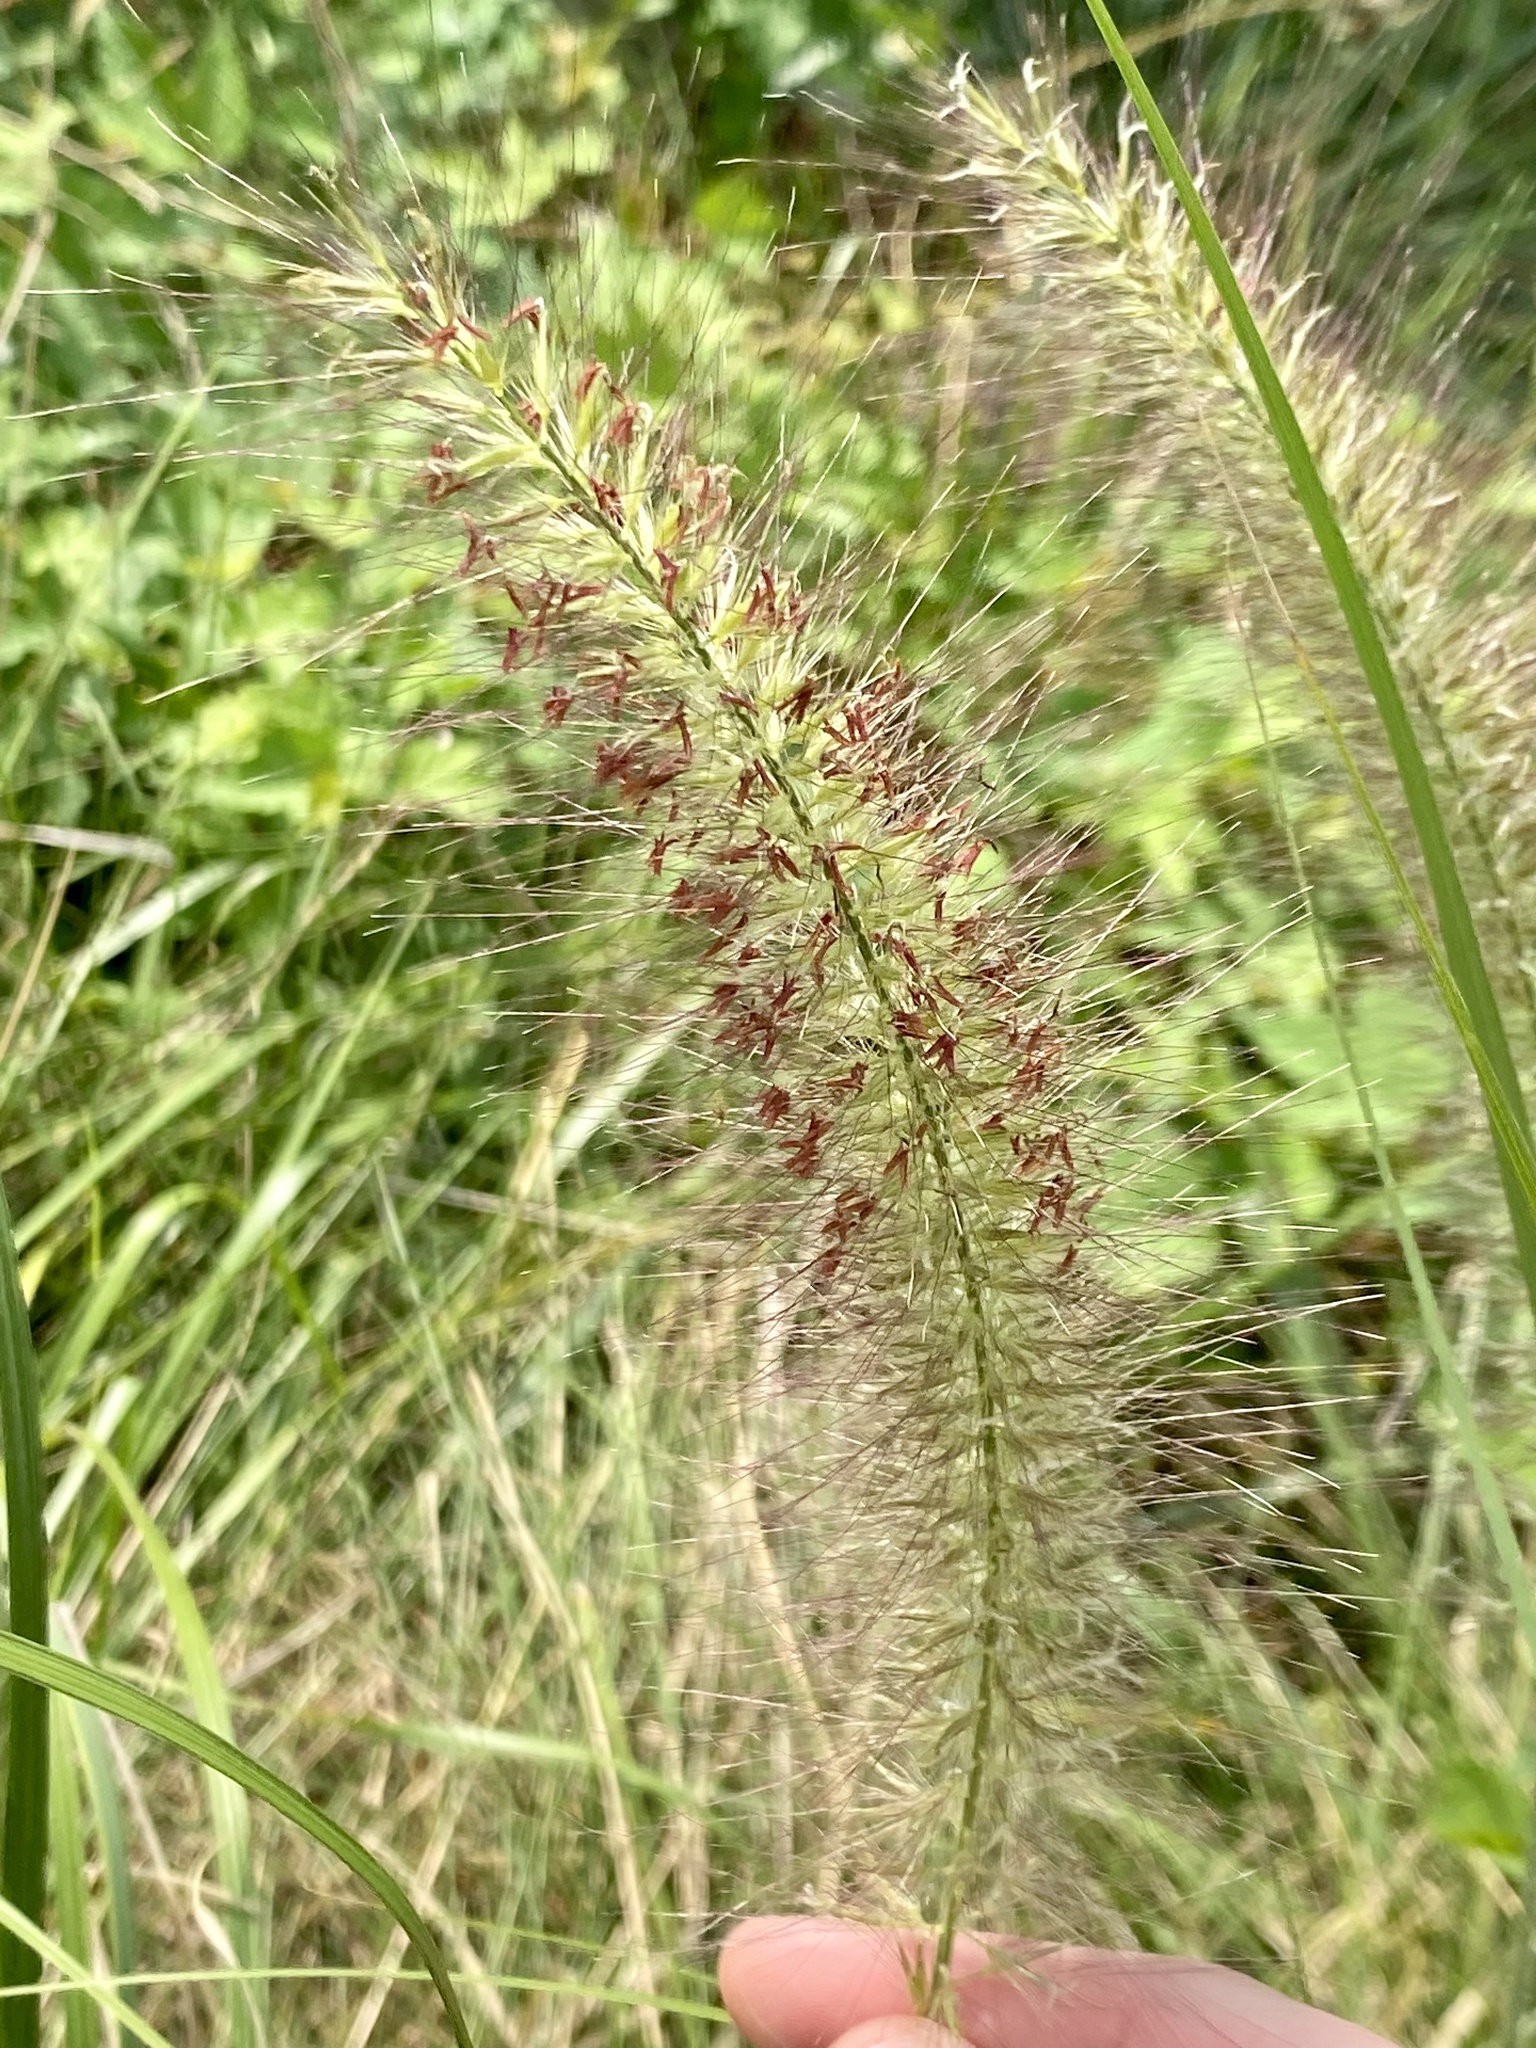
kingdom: Plantae
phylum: Tracheophyta
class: Liliopsida
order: Poales
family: Poaceae
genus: Cenchrus
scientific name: Cenchrus alopecuroides
